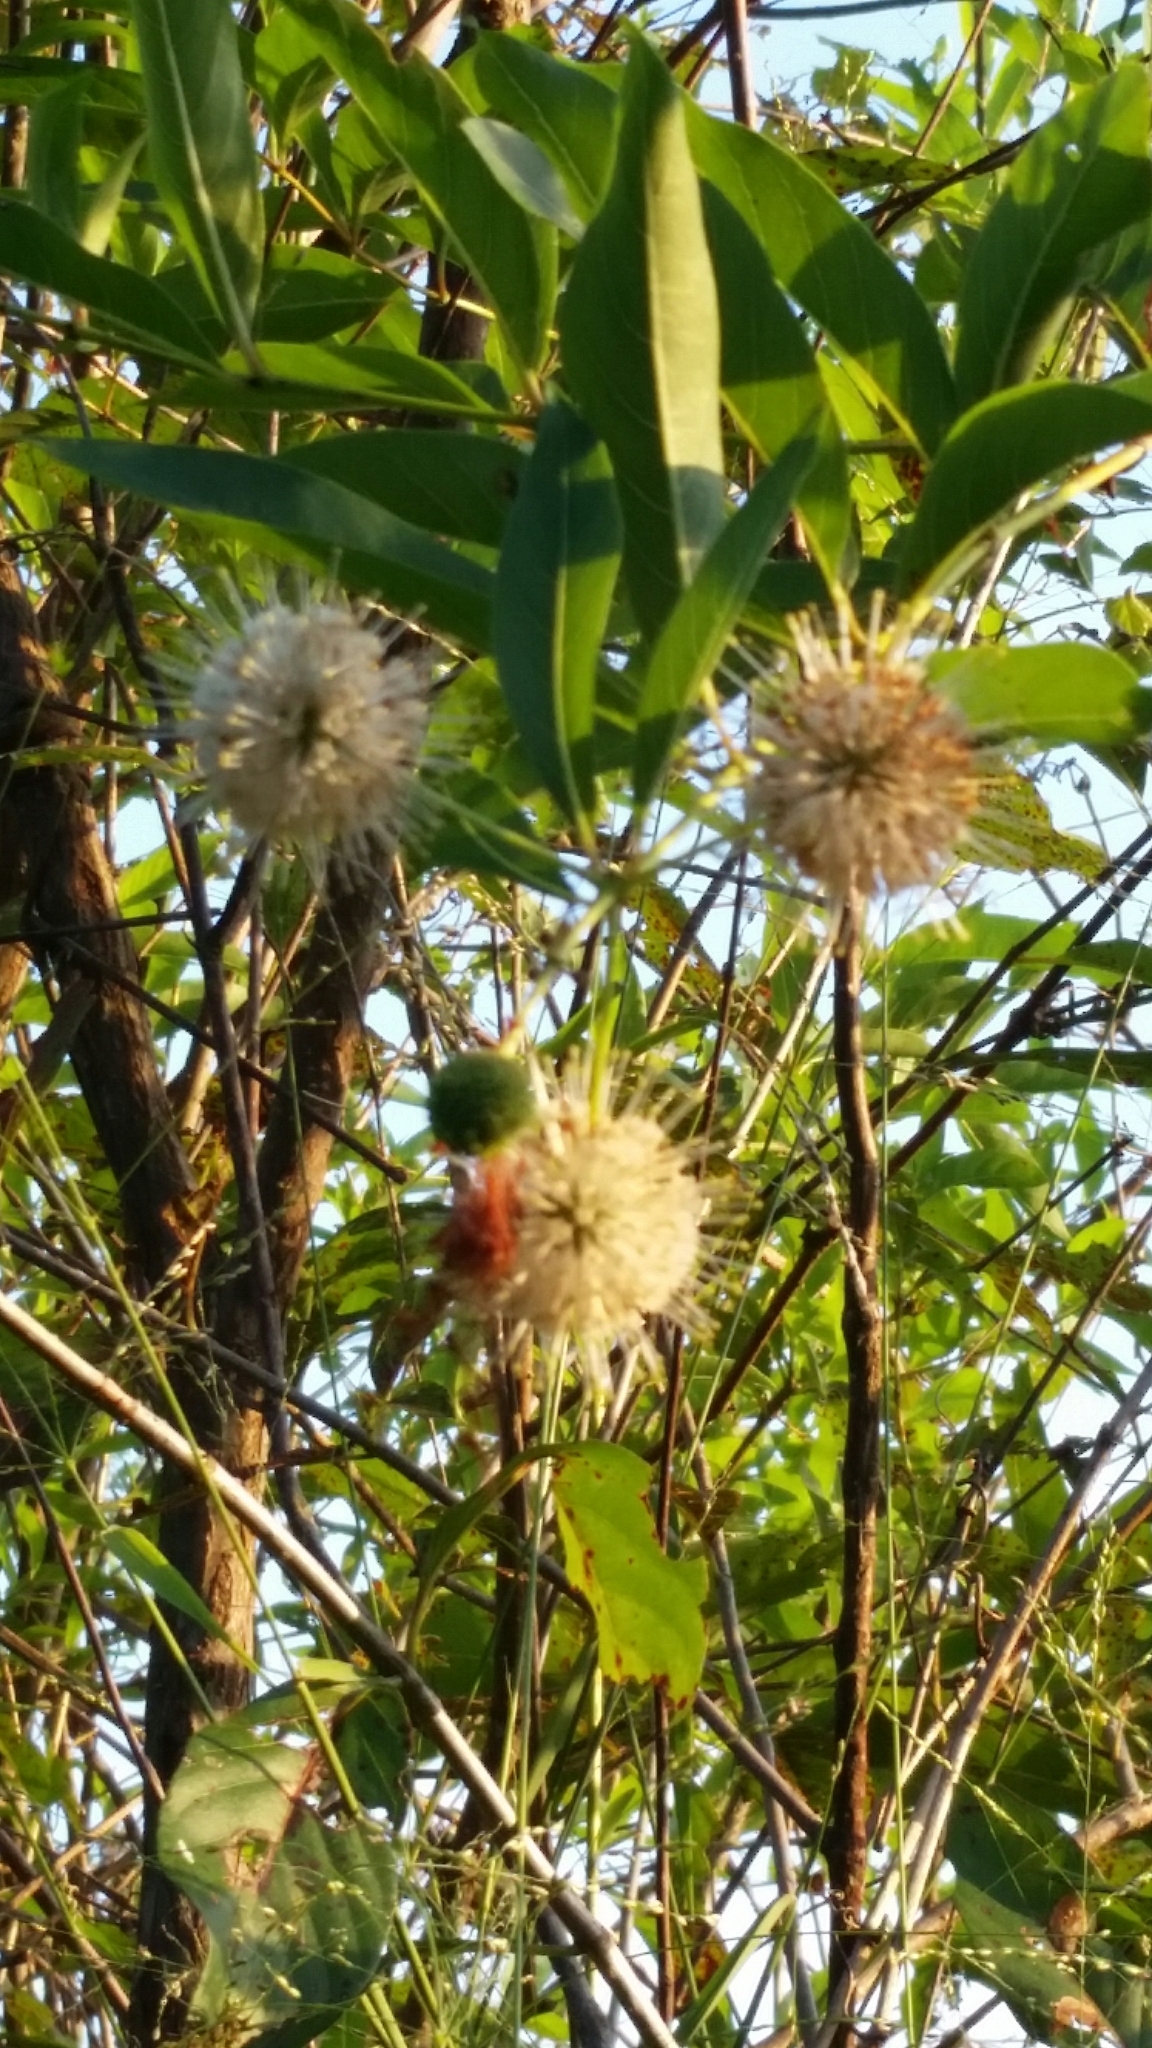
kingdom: Plantae
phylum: Tracheophyta
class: Magnoliopsida
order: Gentianales
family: Rubiaceae
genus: Cephalanthus
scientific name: Cephalanthus occidentalis
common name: Button-willow
